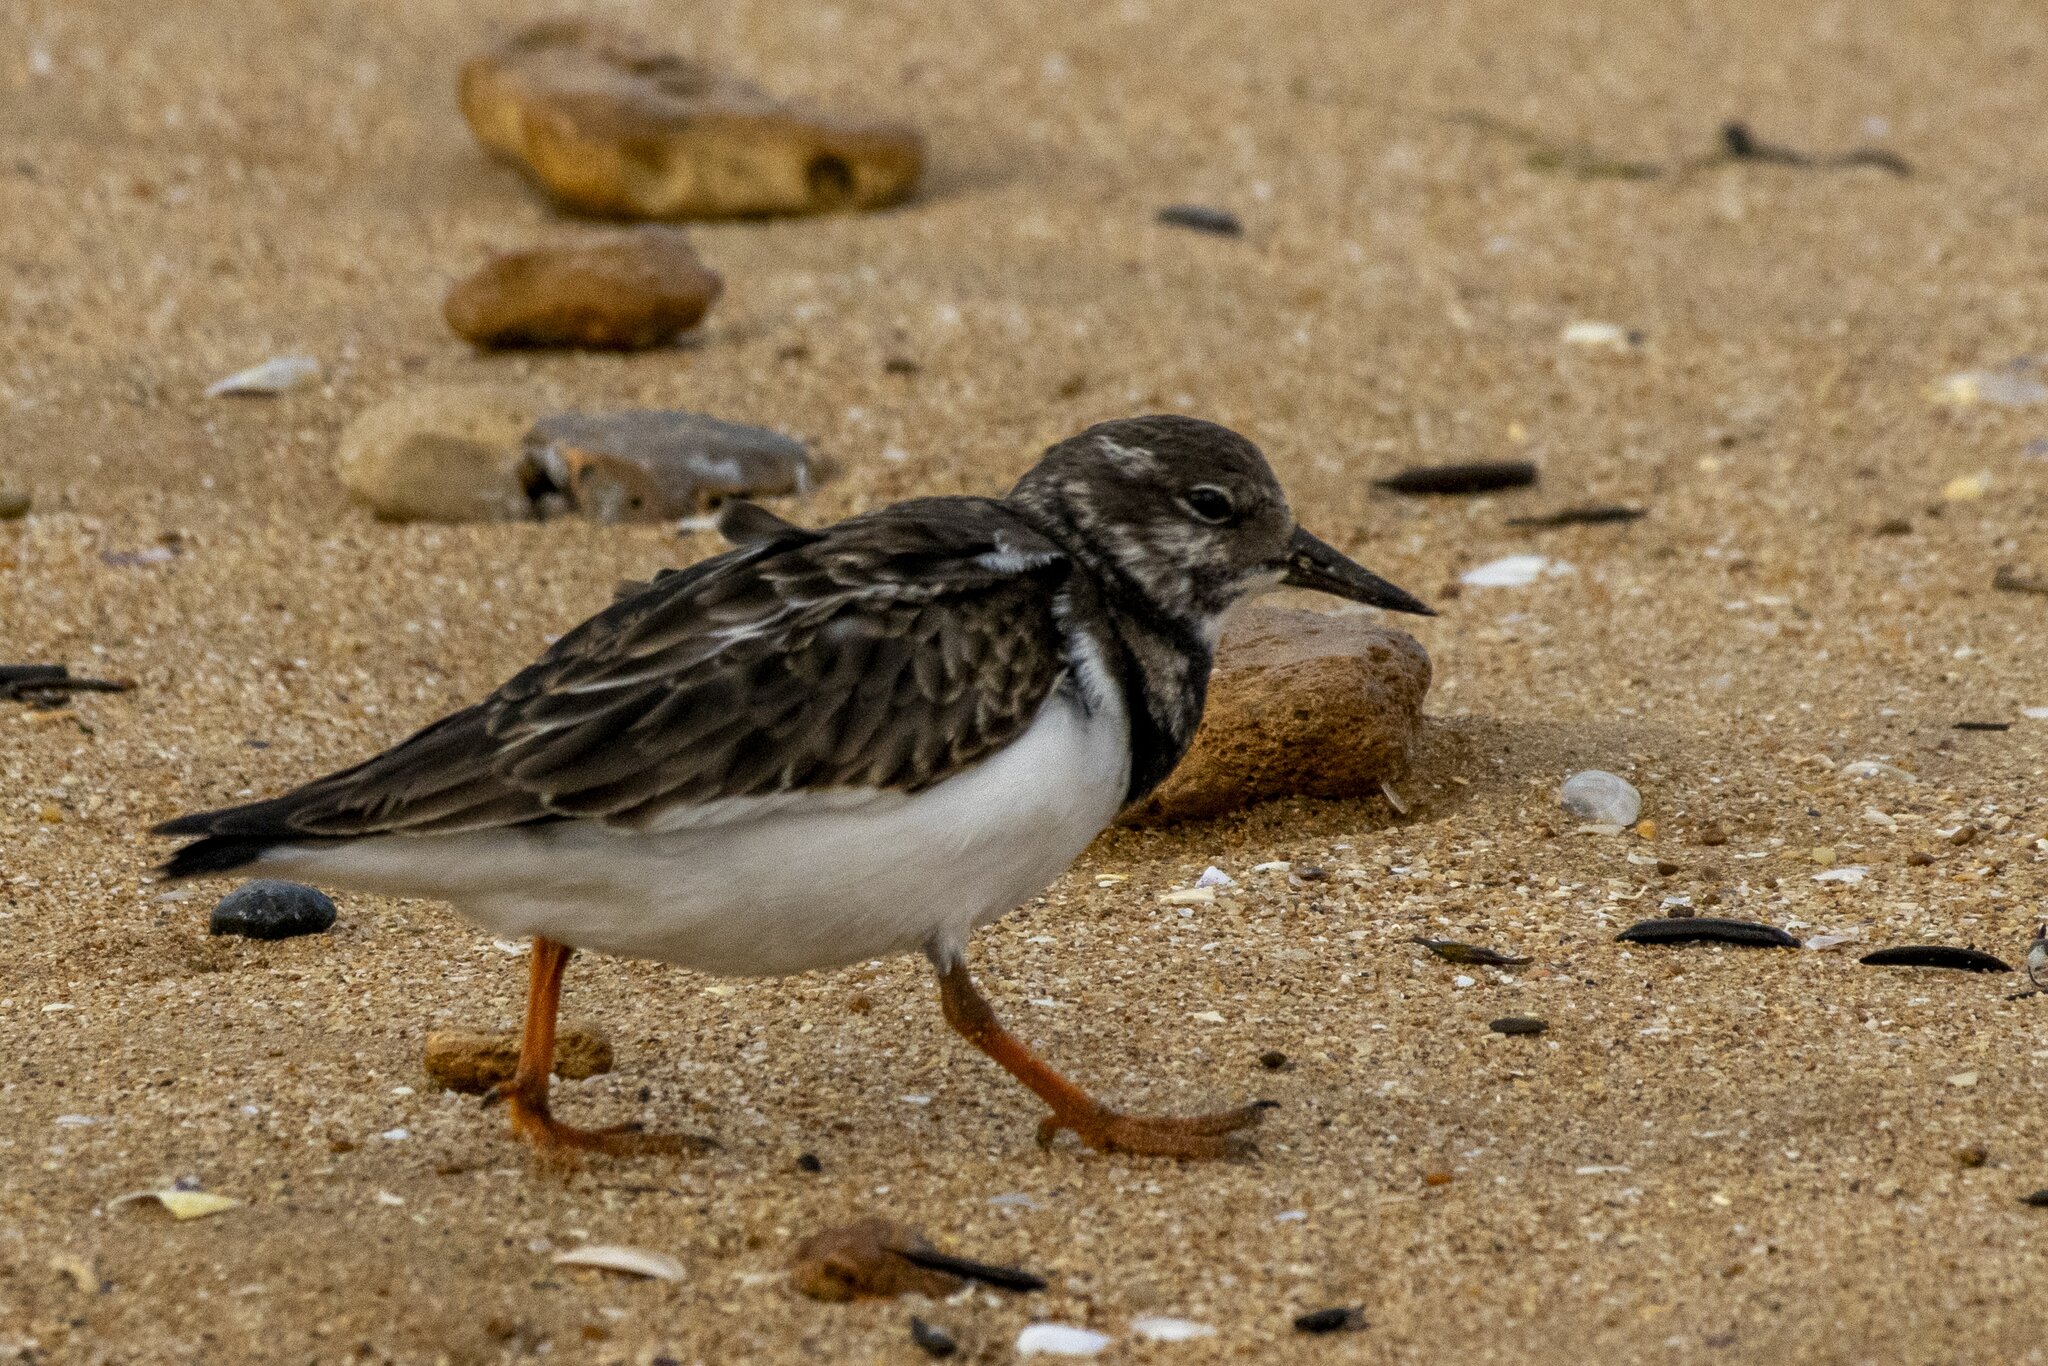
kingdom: Animalia
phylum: Chordata
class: Aves
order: Charadriiformes
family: Scolopacidae
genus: Arenaria
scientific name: Arenaria interpres
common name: Ruddy turnstone
